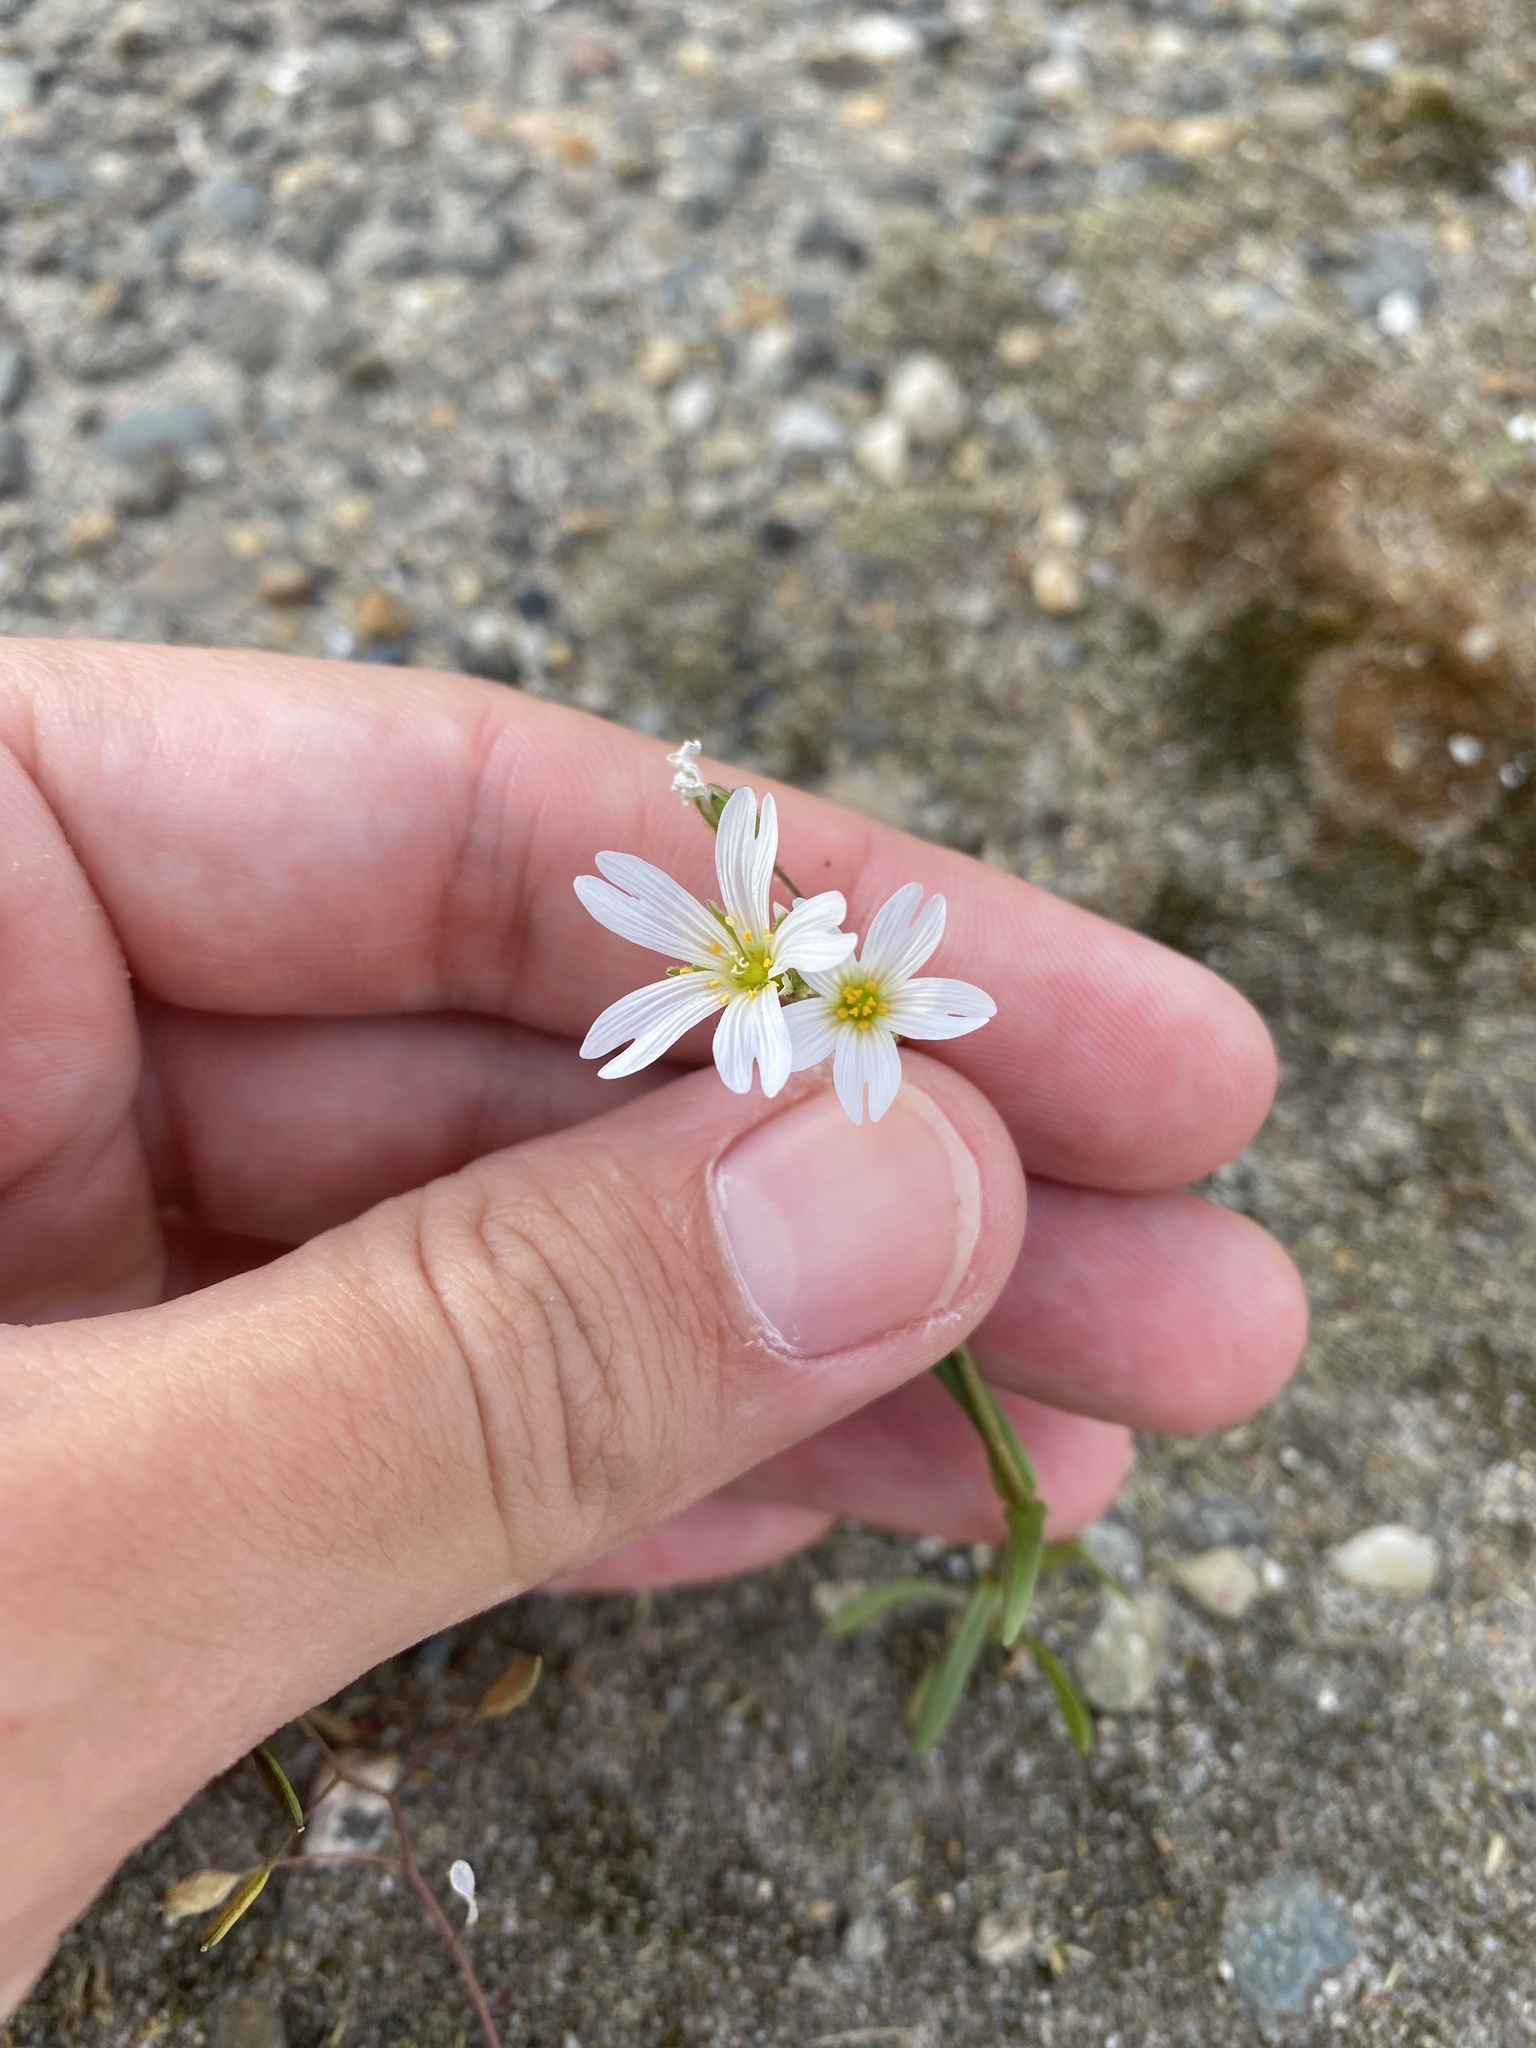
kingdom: Plantae
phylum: Tracheophyta
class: Magnoliopsida
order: Caryophyllales
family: Caryophyllaceae
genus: Dichodon
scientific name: Dichodon viscidum
